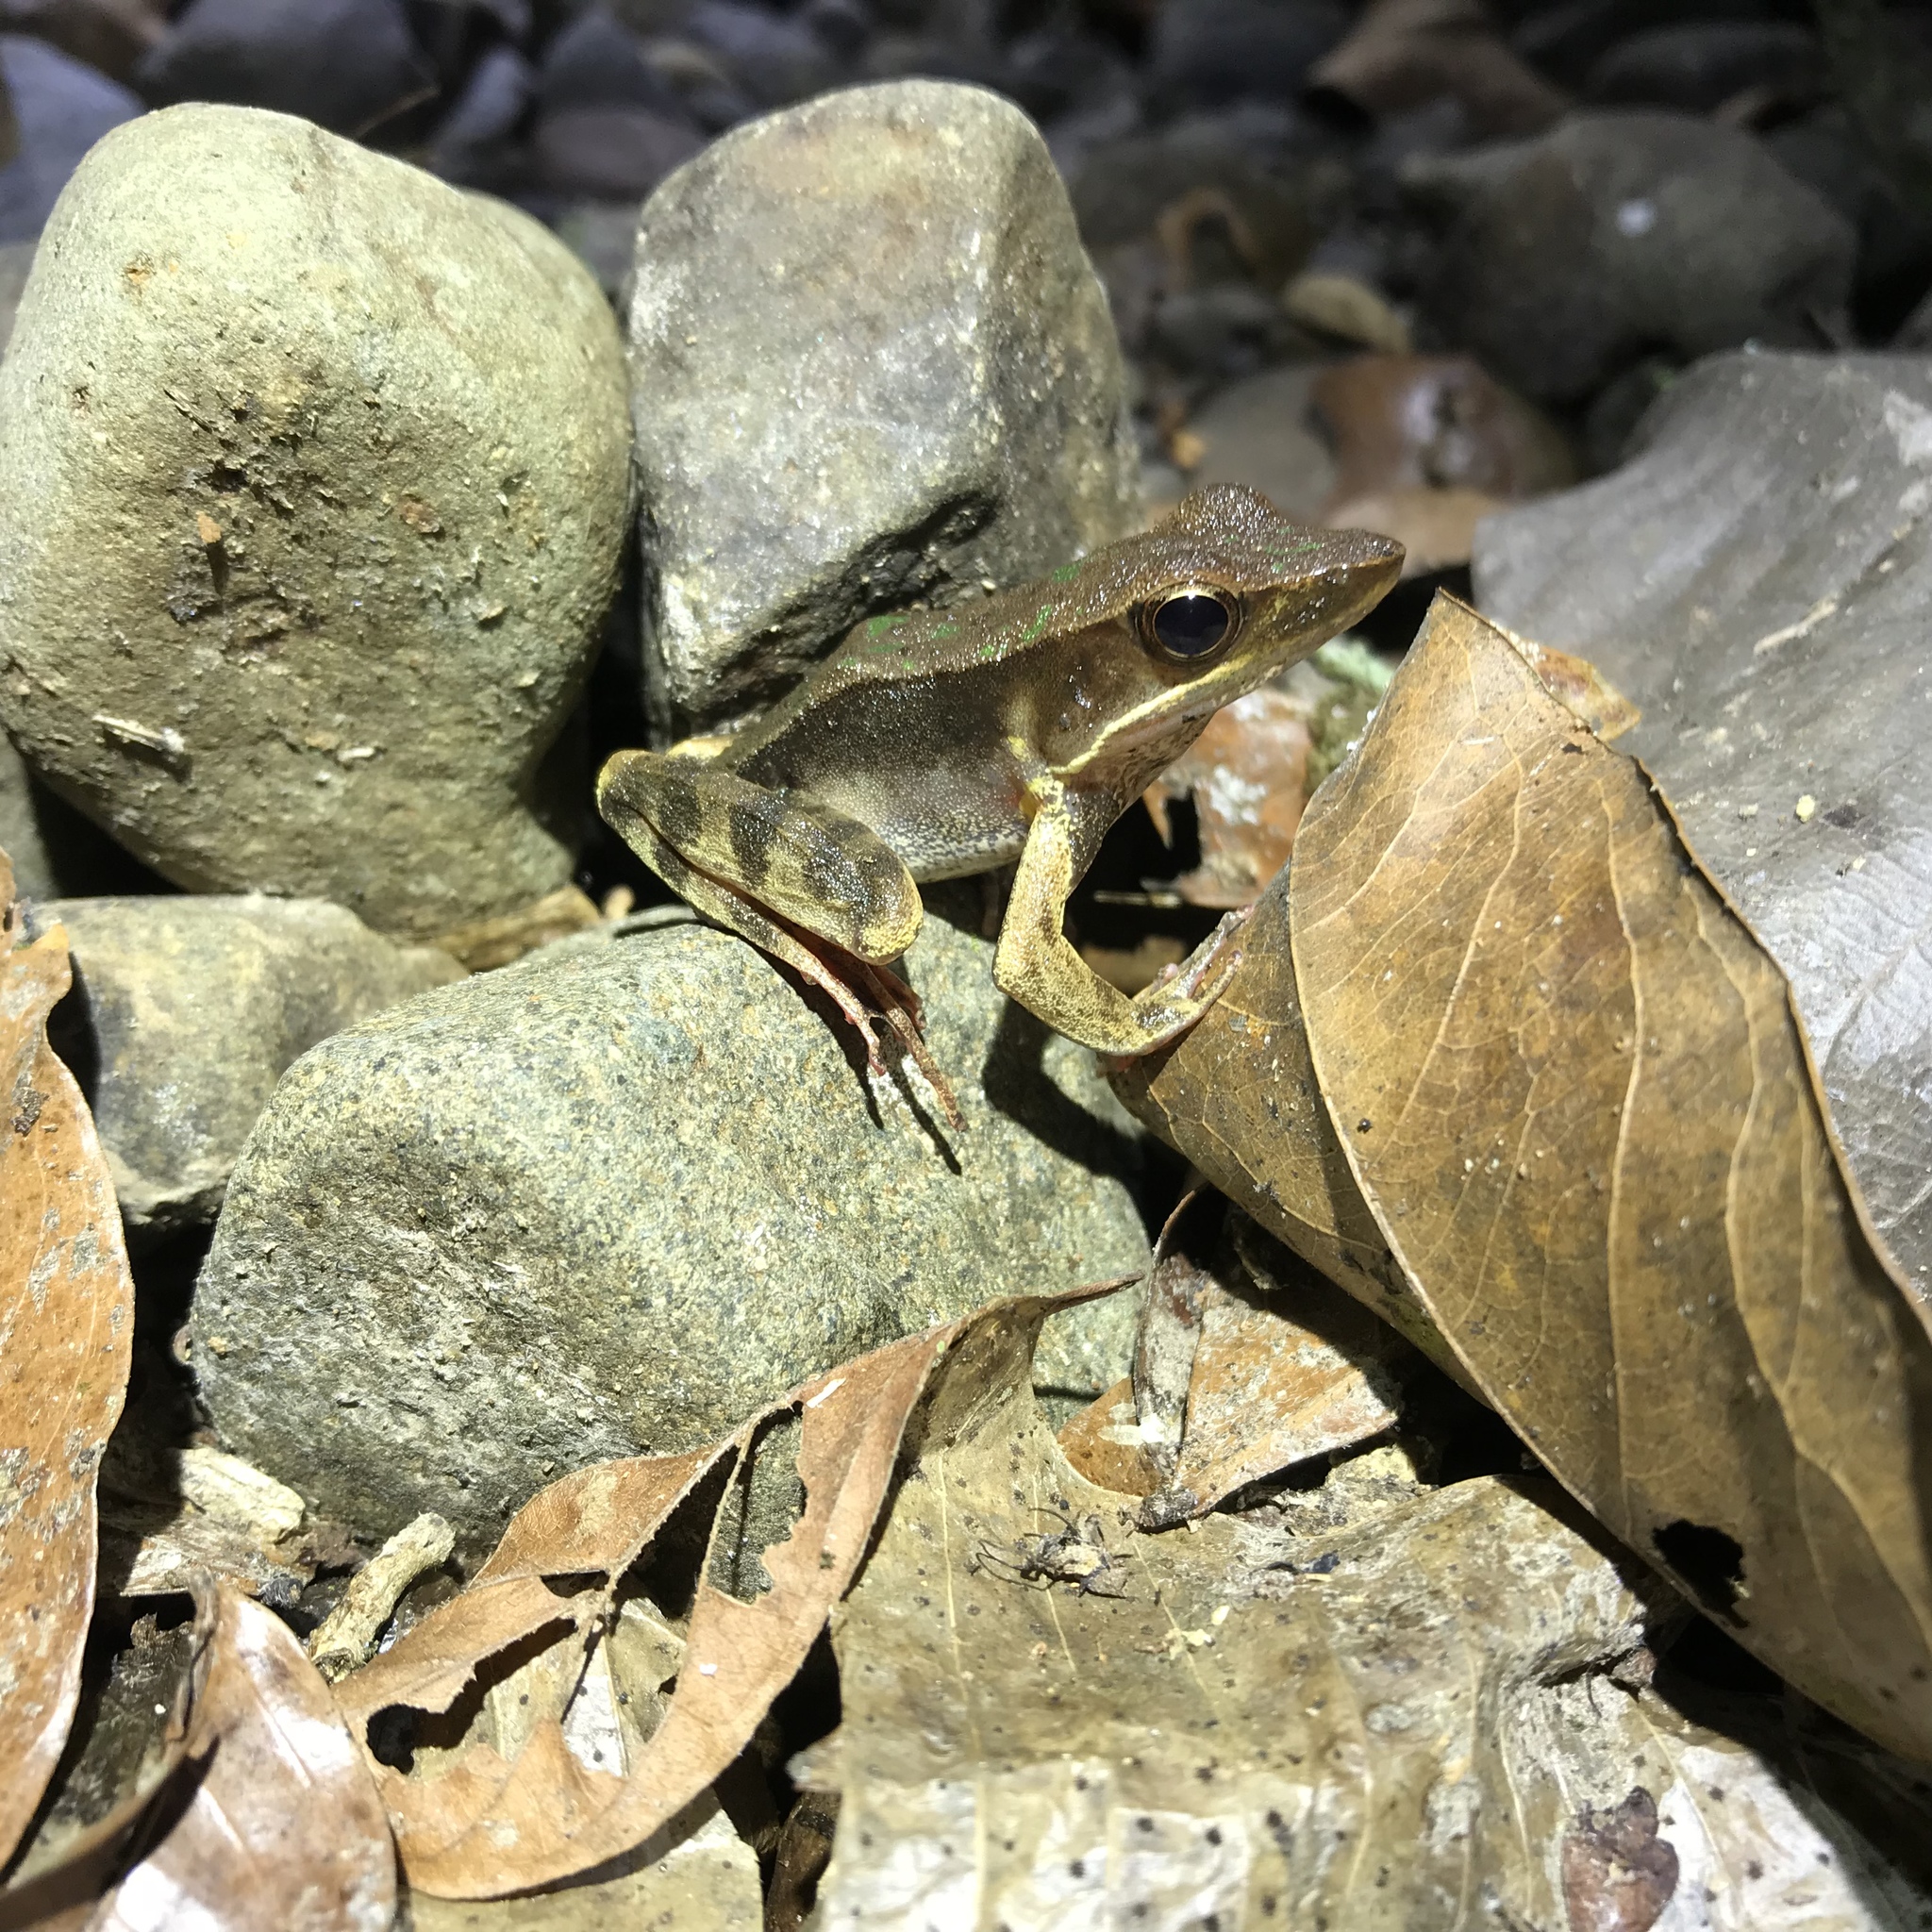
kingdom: Animalia
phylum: Chordata
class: Amphibia
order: Anura
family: Ranidae
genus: Lithobates
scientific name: Lithobates warszewitschii
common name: Warszewitsch's frog
